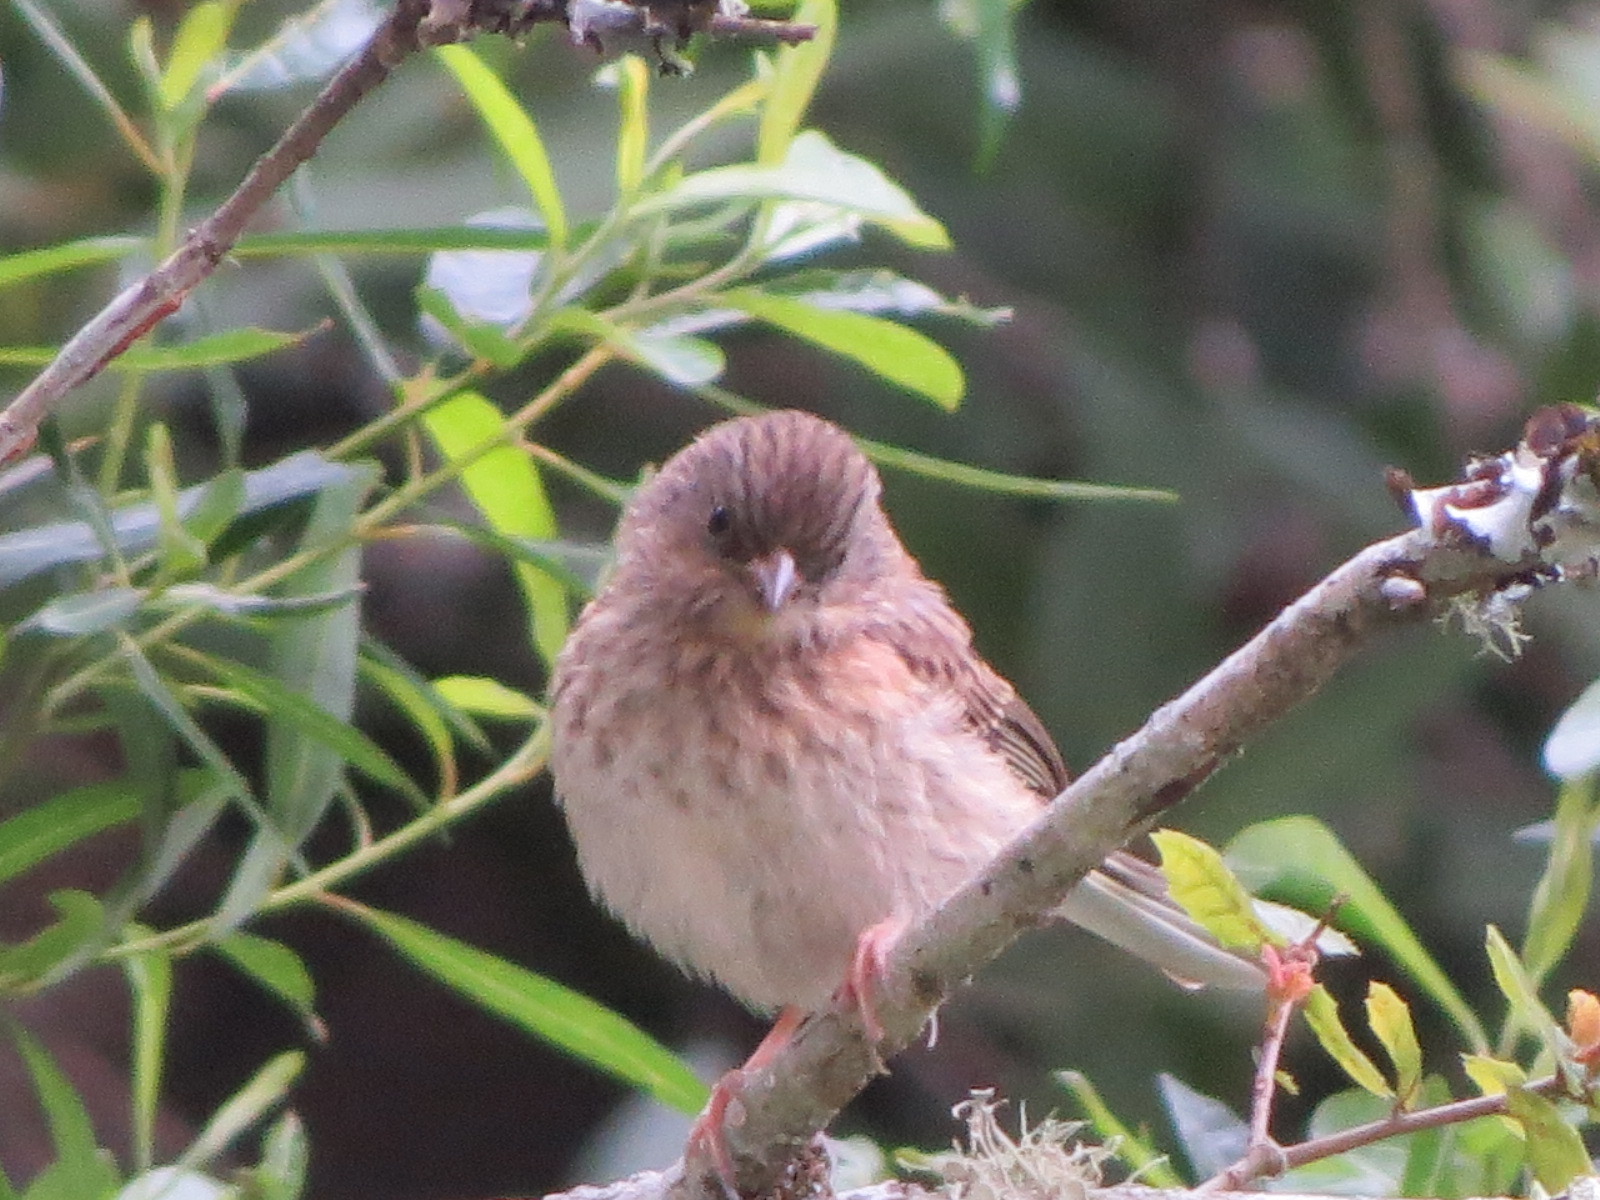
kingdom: Animalia
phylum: Chordata
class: Aves
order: Passeriformes
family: Passerellidae
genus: Junco
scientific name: Junco hyemalis
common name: Dark-eyed junco
